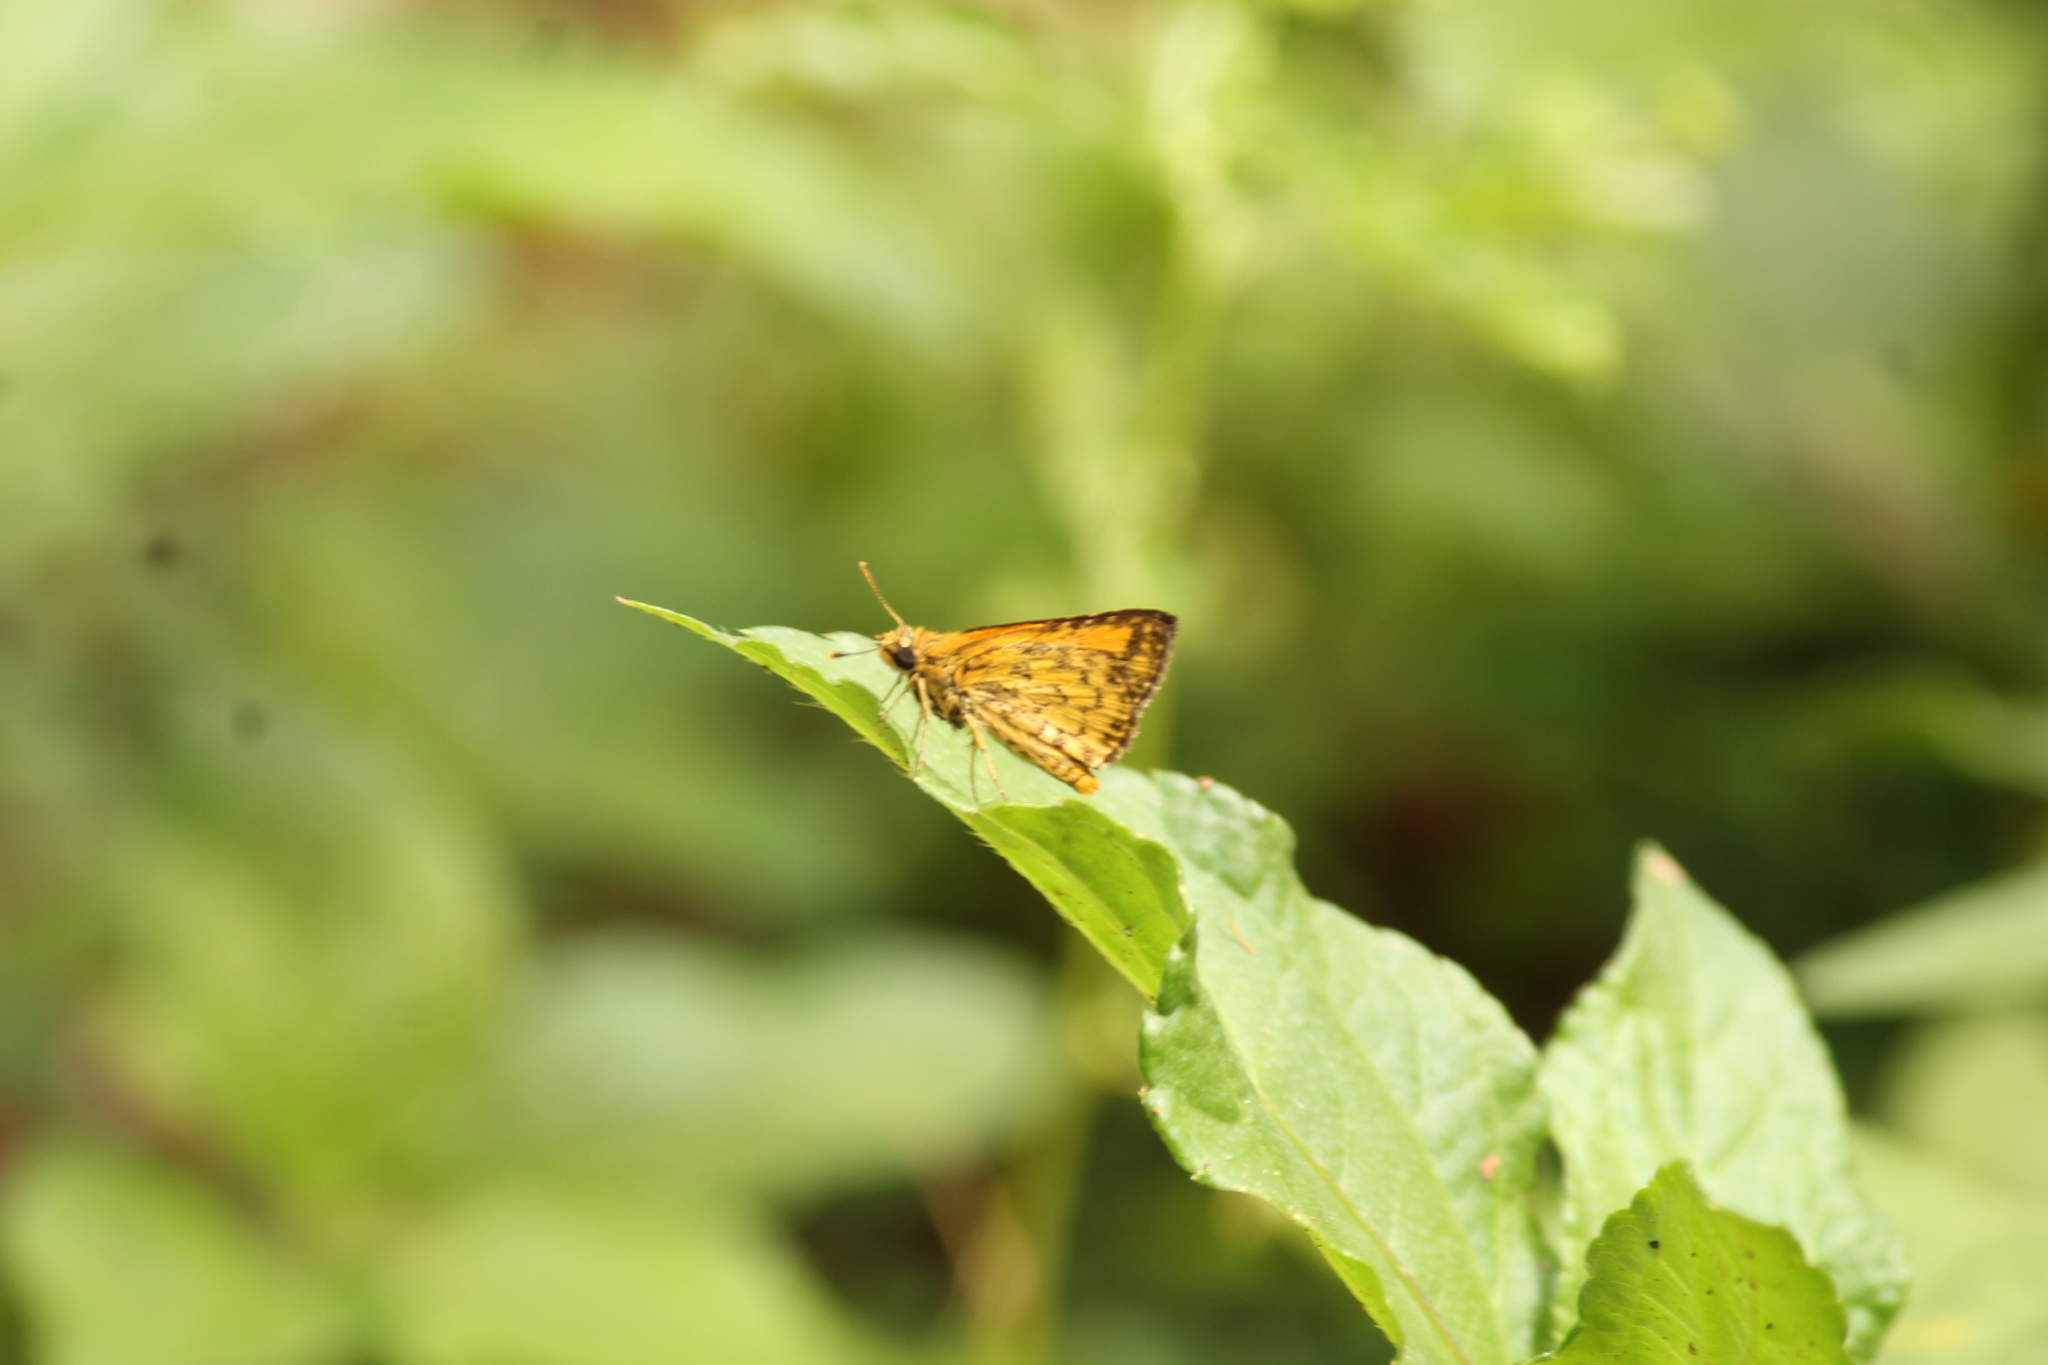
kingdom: Animalia
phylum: Arthropoda
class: Insecta
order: Lepidoptera
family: Hesperiidae
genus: Ampittia
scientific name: Ampittia dioscorides
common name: Common bush hopper
